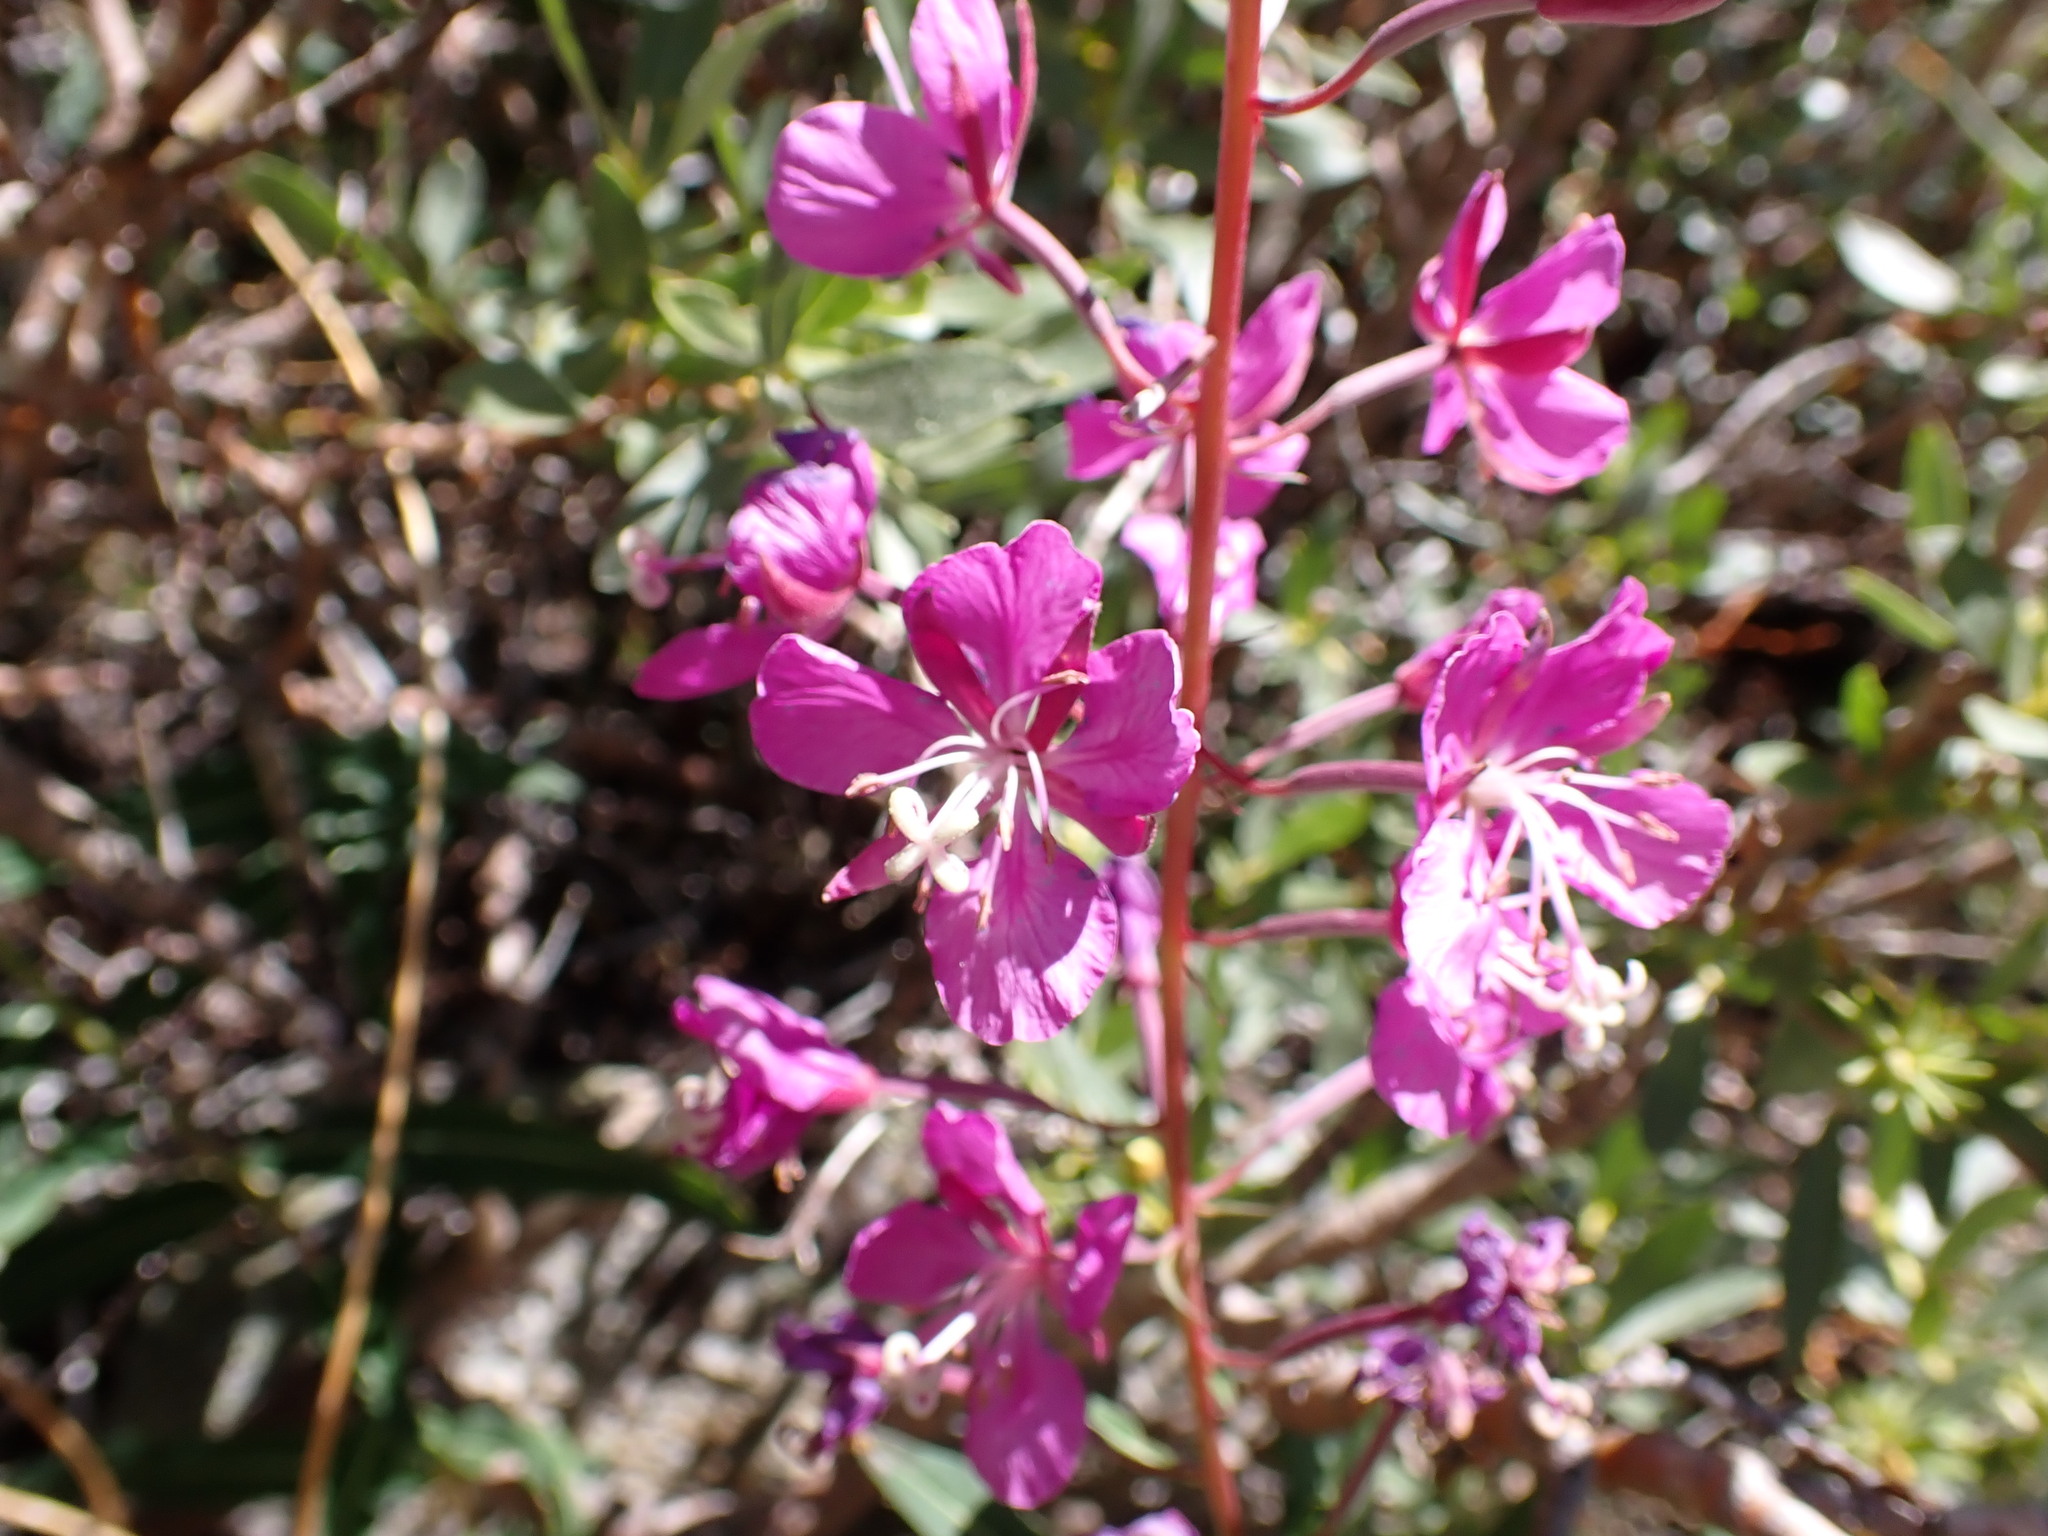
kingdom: Plantae
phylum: Tracheophyta
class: Magnoliopsida
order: Myrtales
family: Onagraceae
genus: Chamaenerion
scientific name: Chamaenerion angustifolium
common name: Fireweed
